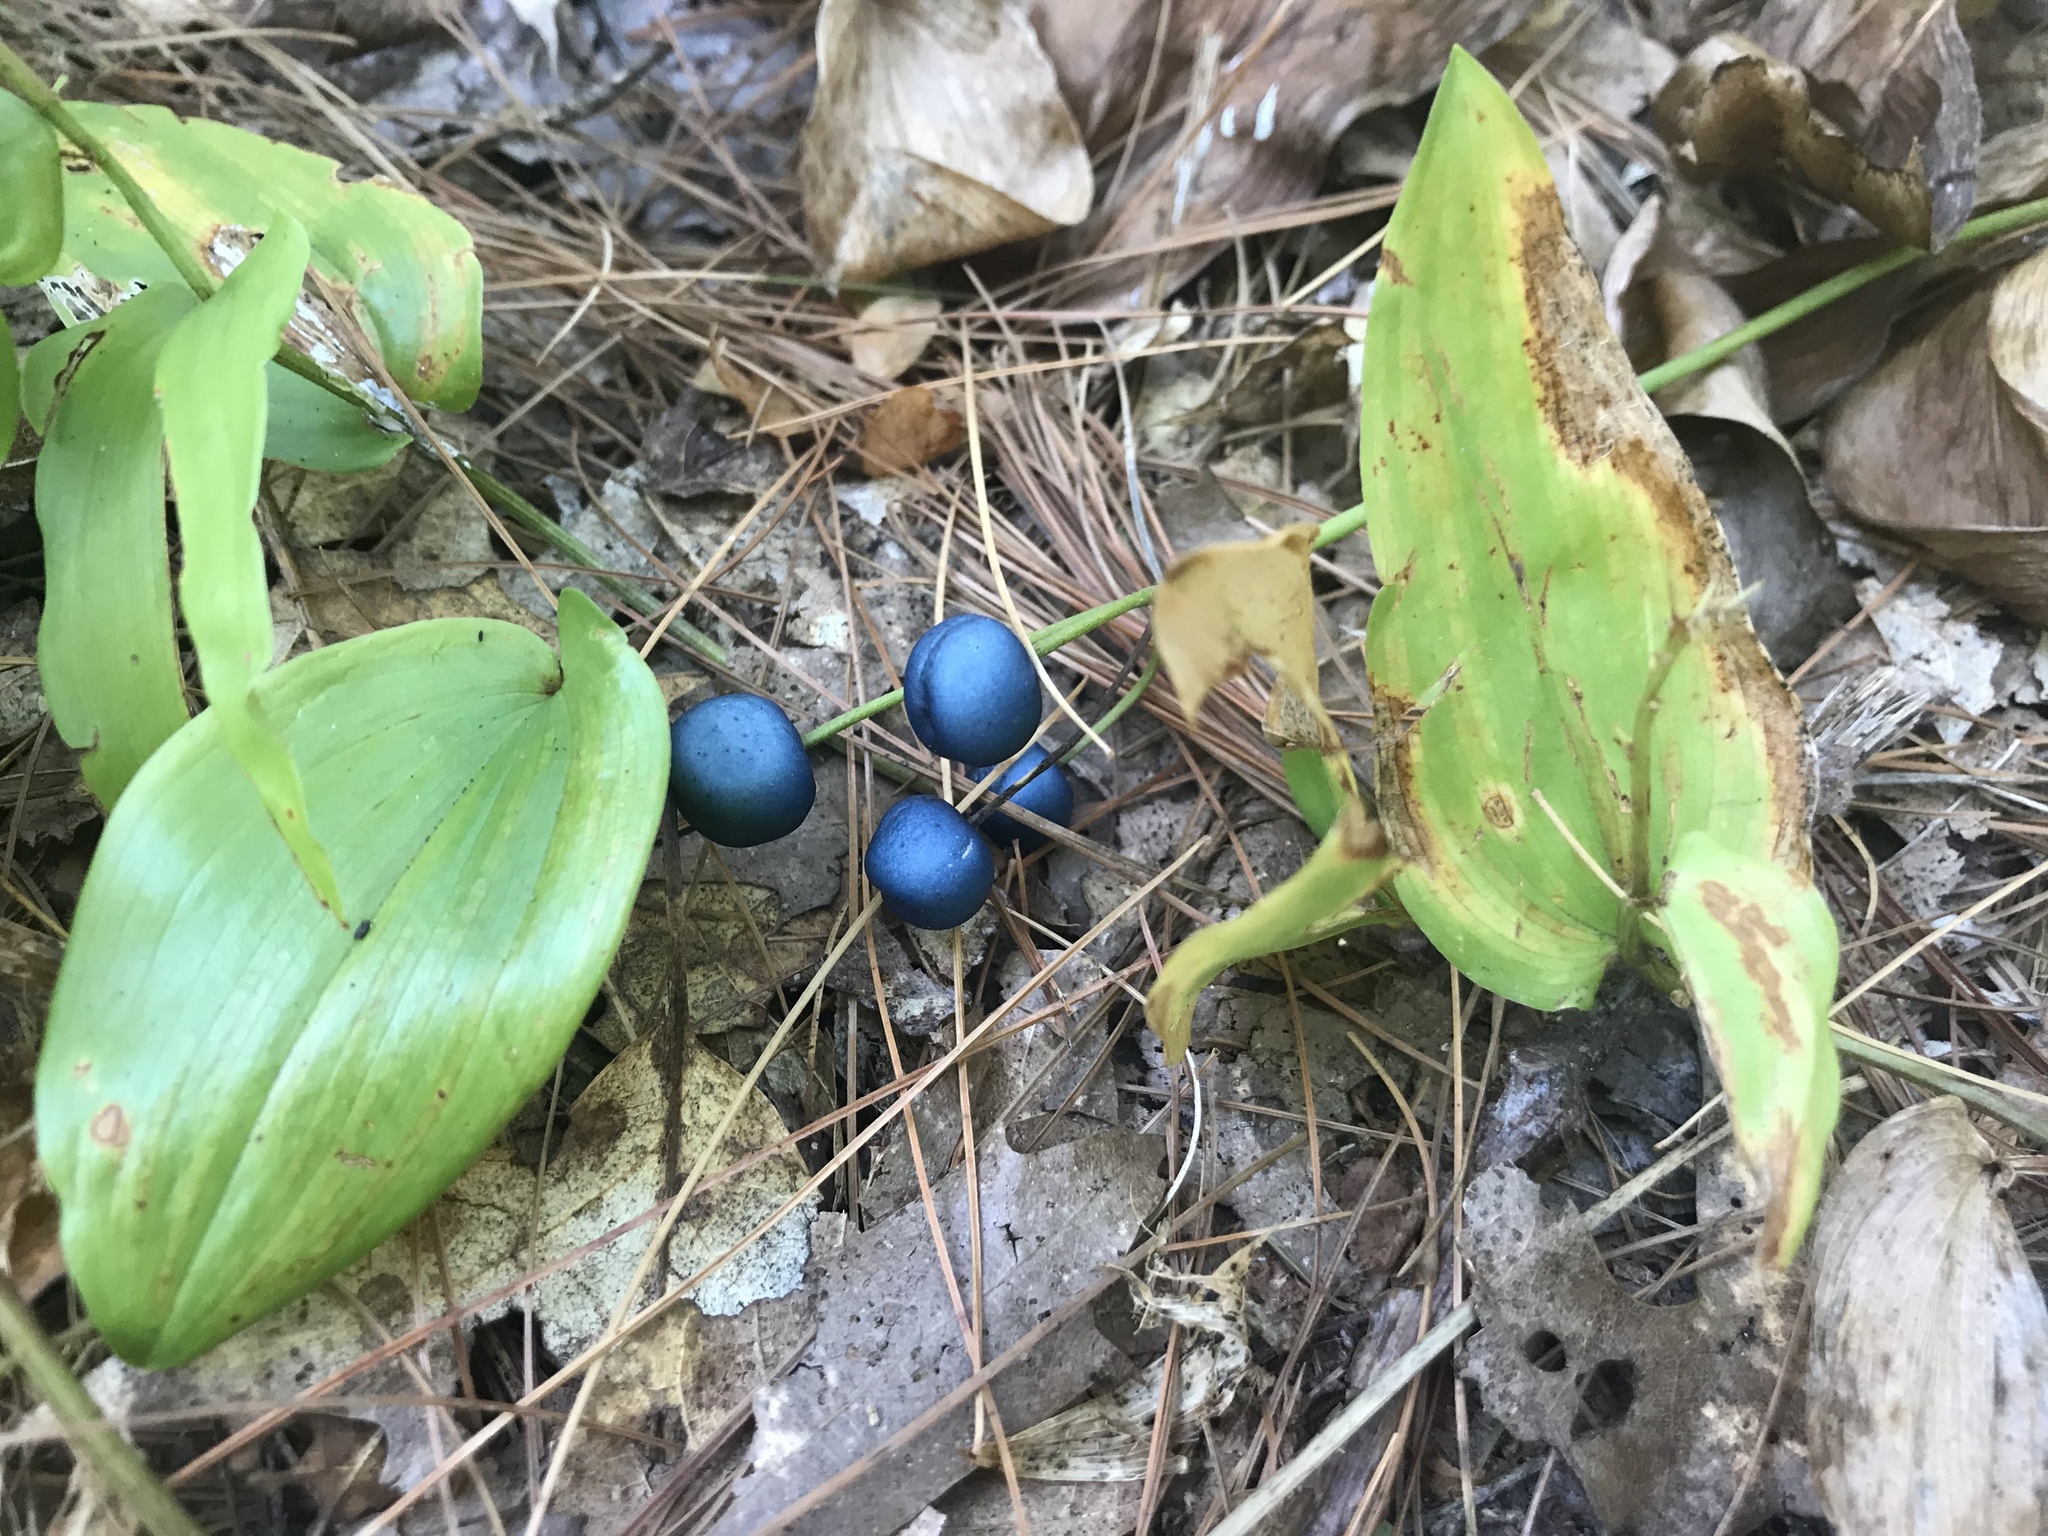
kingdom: Plantae
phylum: Tracheophyta
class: Liliopsida
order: Liliales
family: Liliaceae
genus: Clintonia
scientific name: Clintonia borealis
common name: Yellow clintonia
